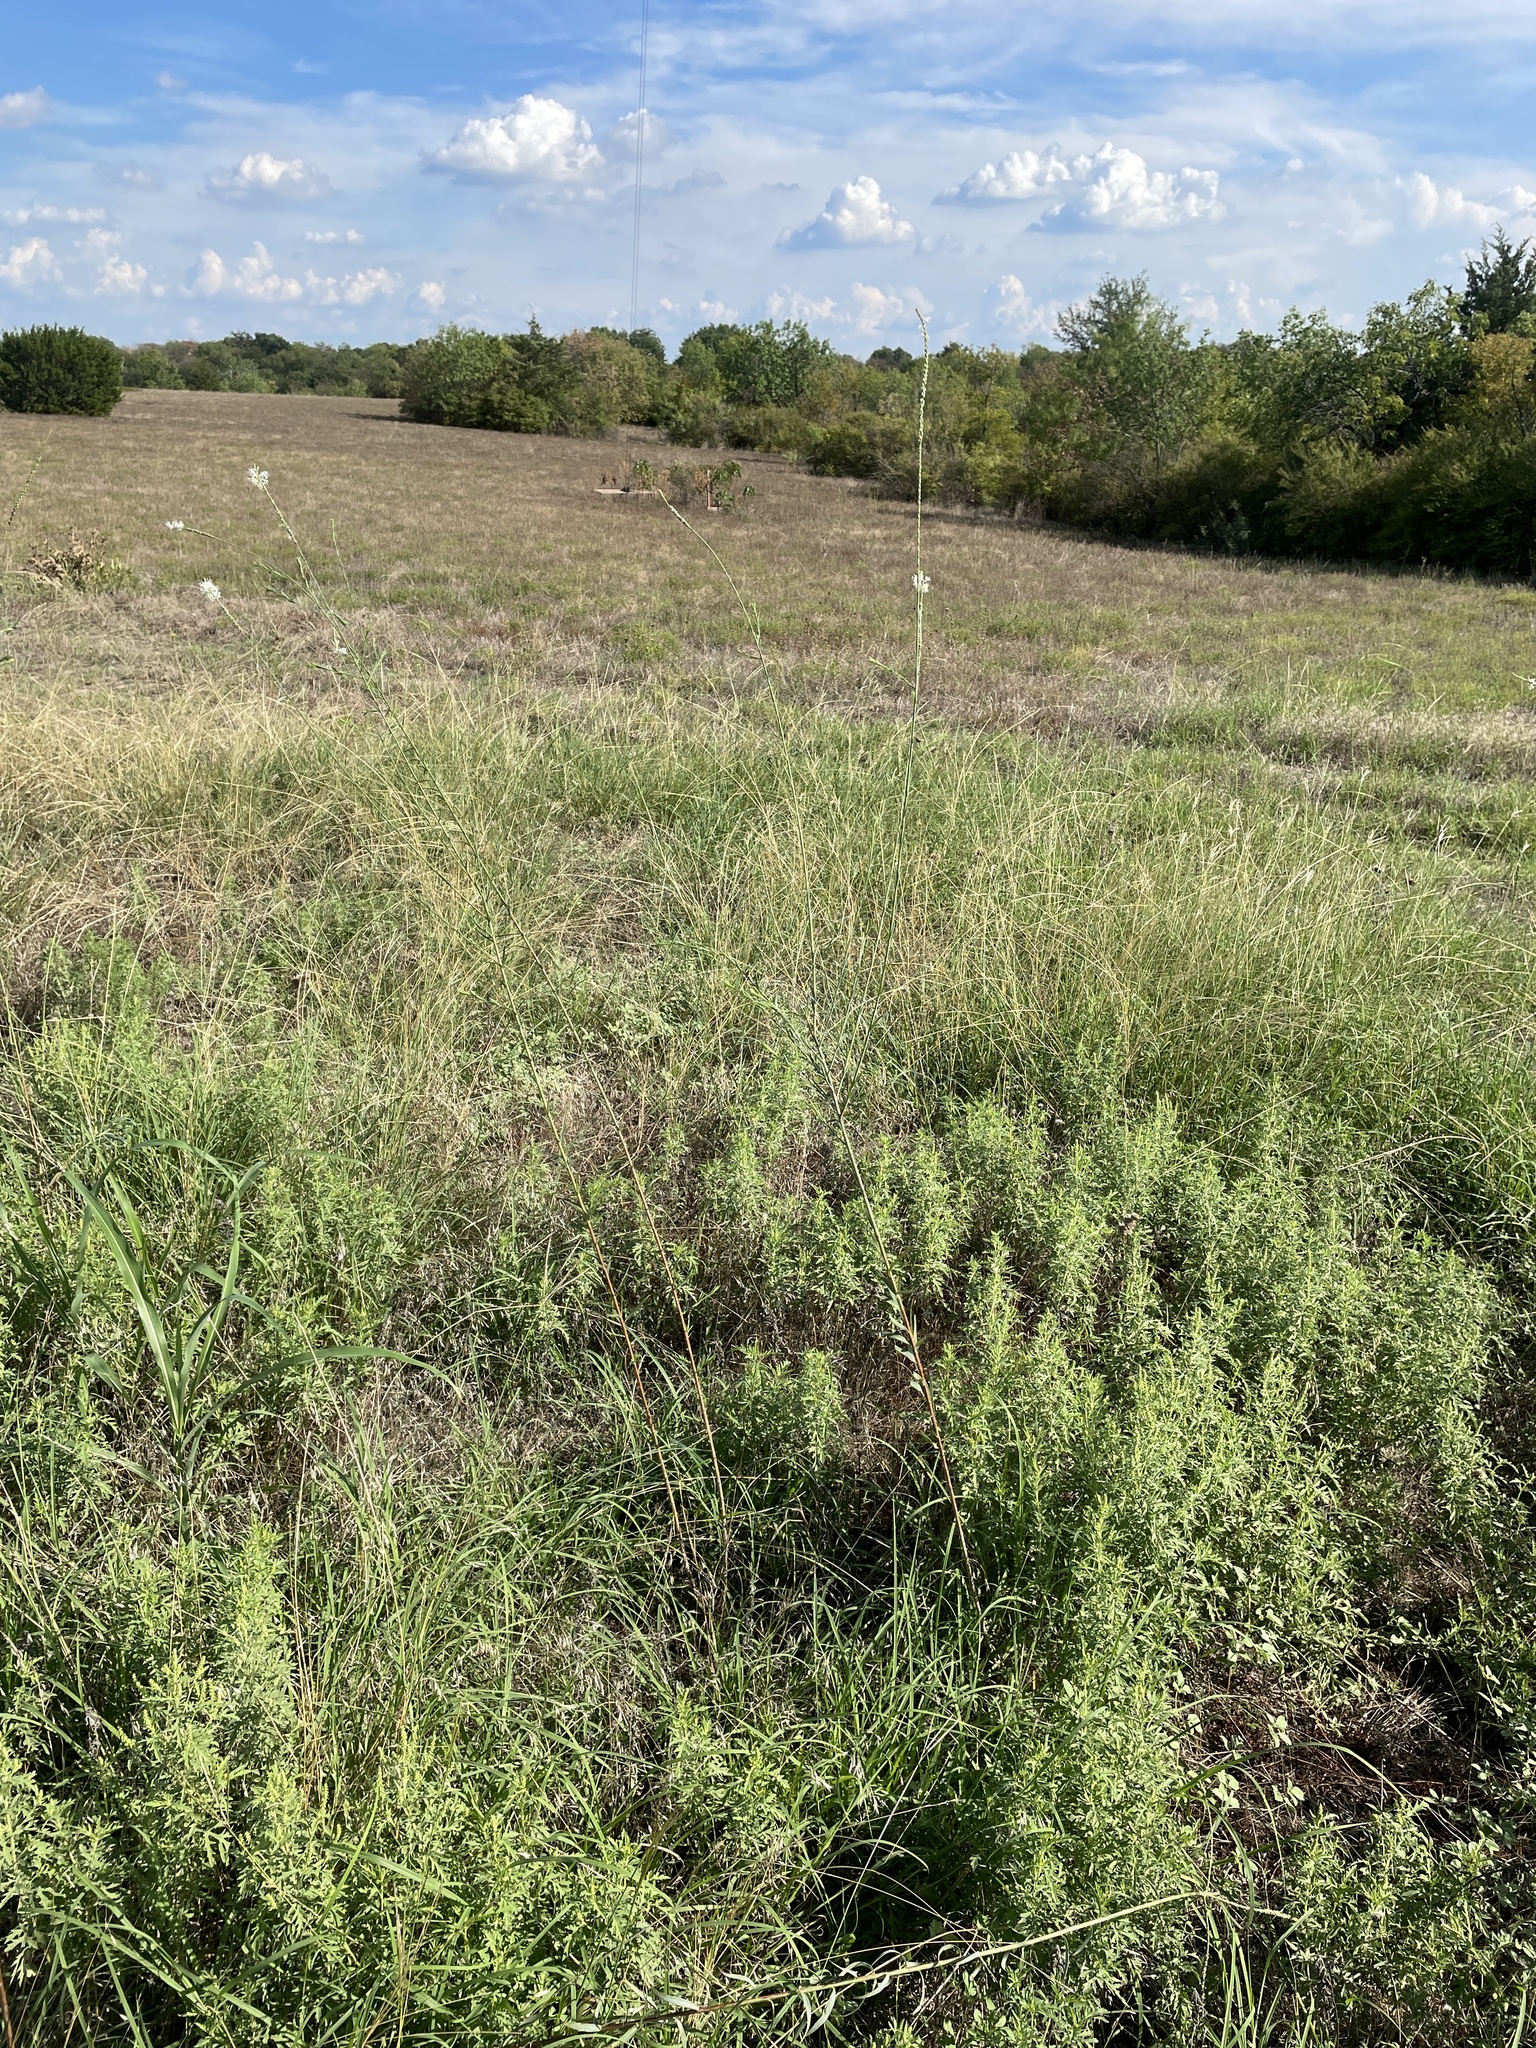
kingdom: Plantae
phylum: Tracheophyta
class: Magnoliopsida
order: Myrtales
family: Onagraceae
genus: Oenothera
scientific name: Oenothera glaucifolia
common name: False gaura
